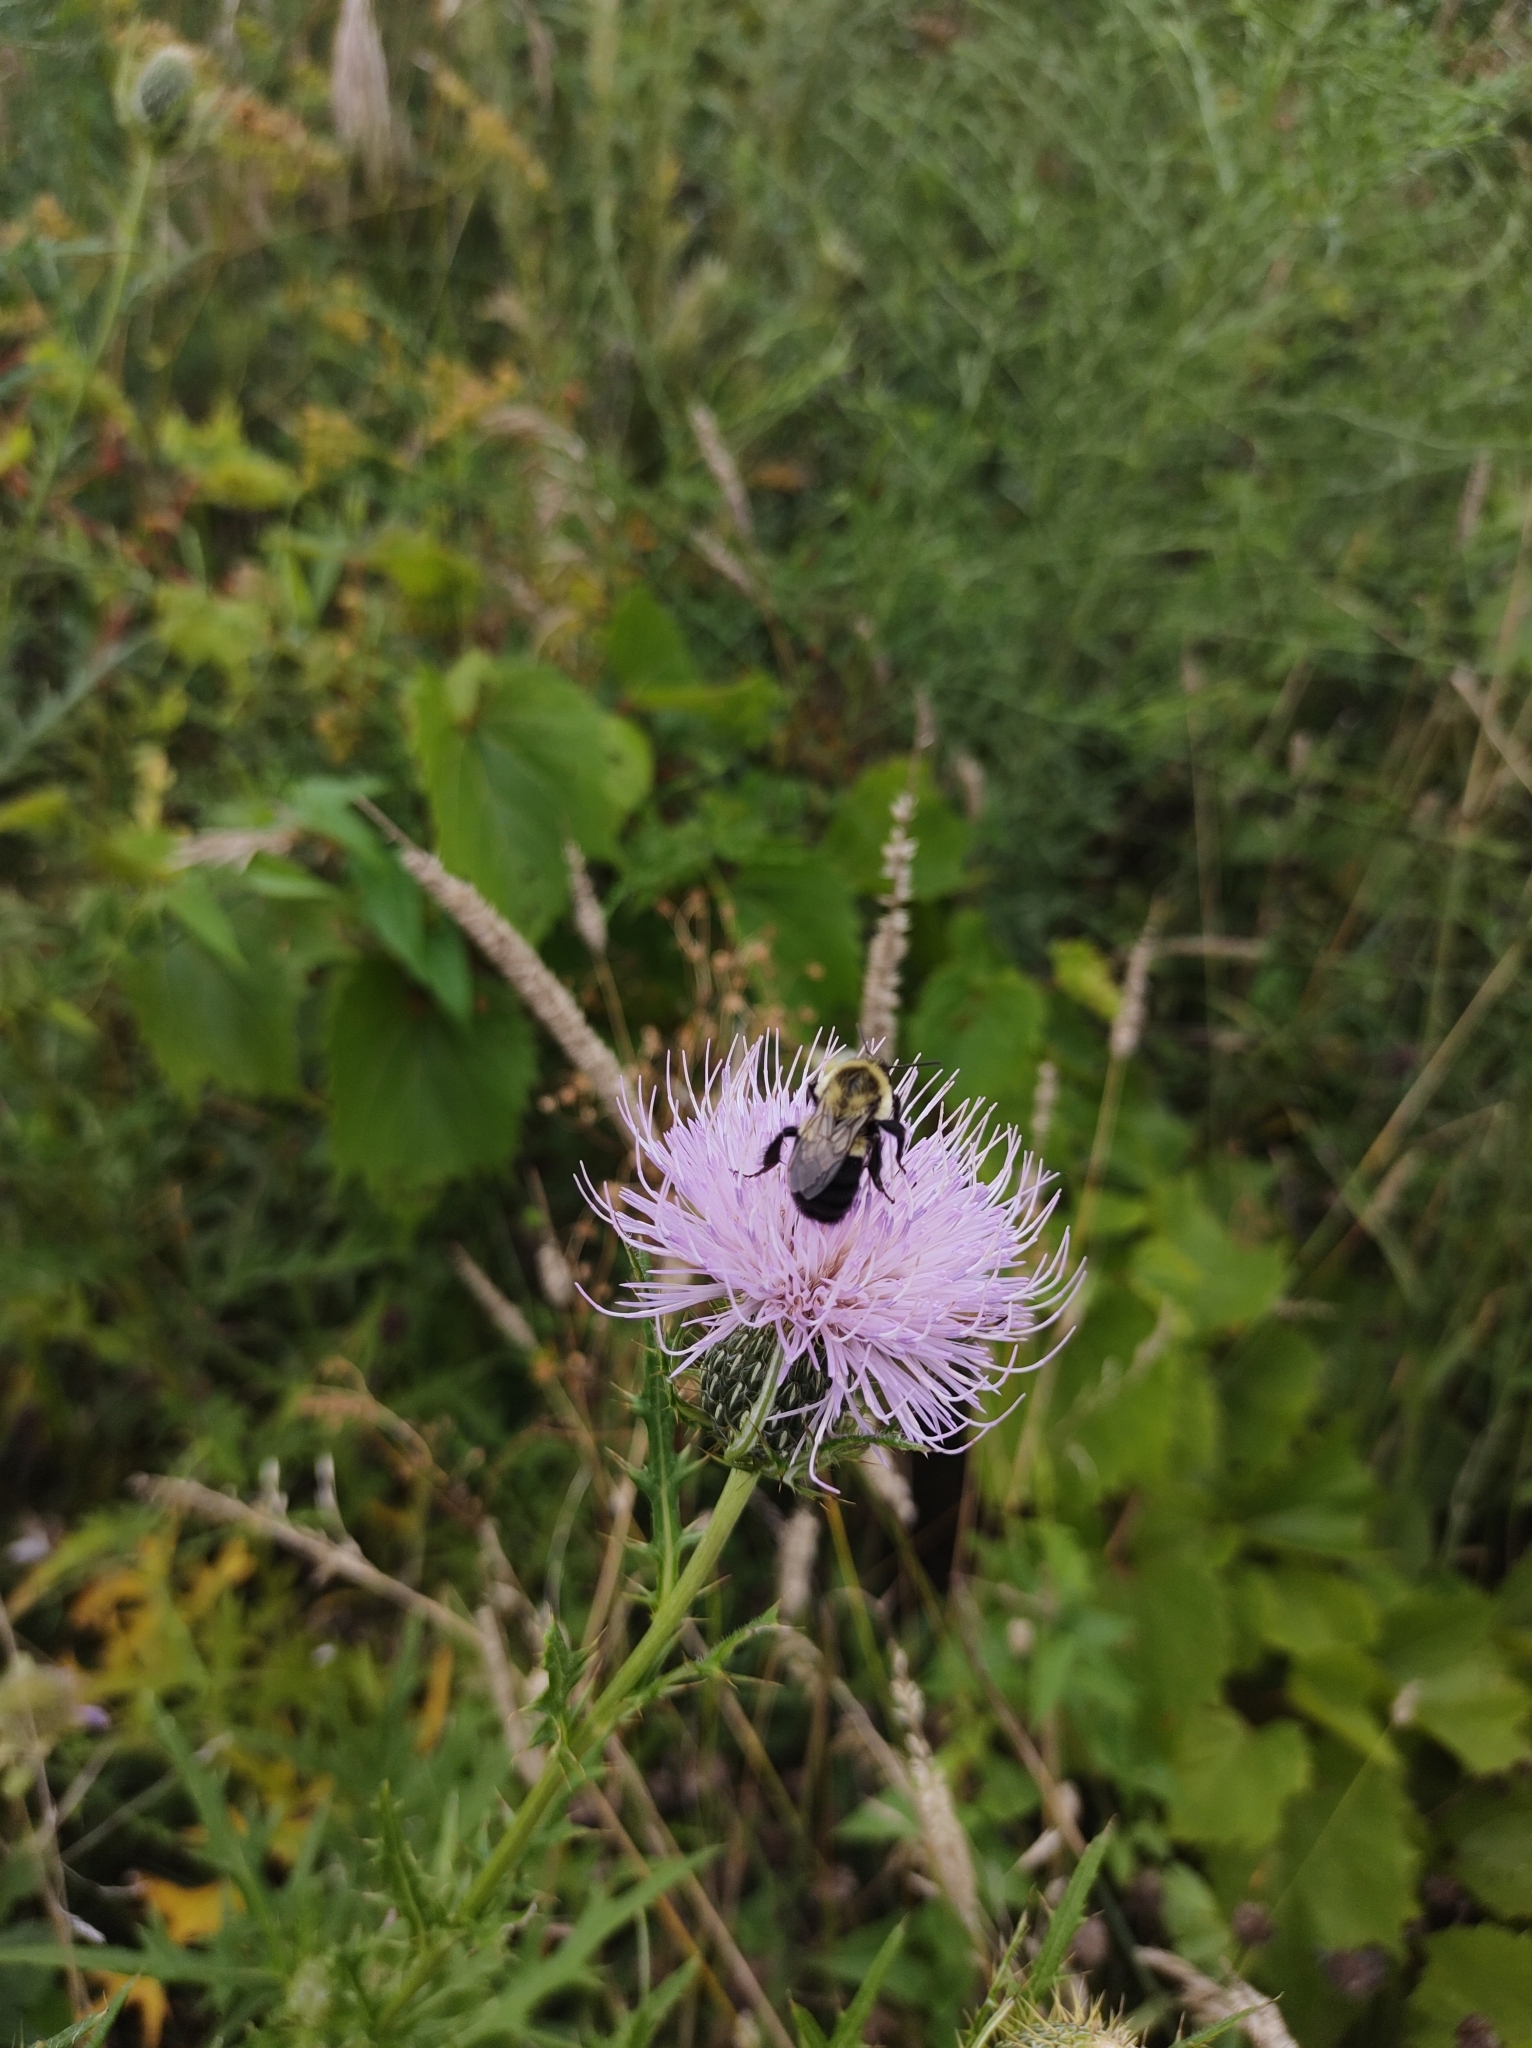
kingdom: Animalia
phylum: Arthropoda
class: Insecta
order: Hymenoptera
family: Apidae
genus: Bombus
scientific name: Bombus impatiens
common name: Common eastern bumble bee
